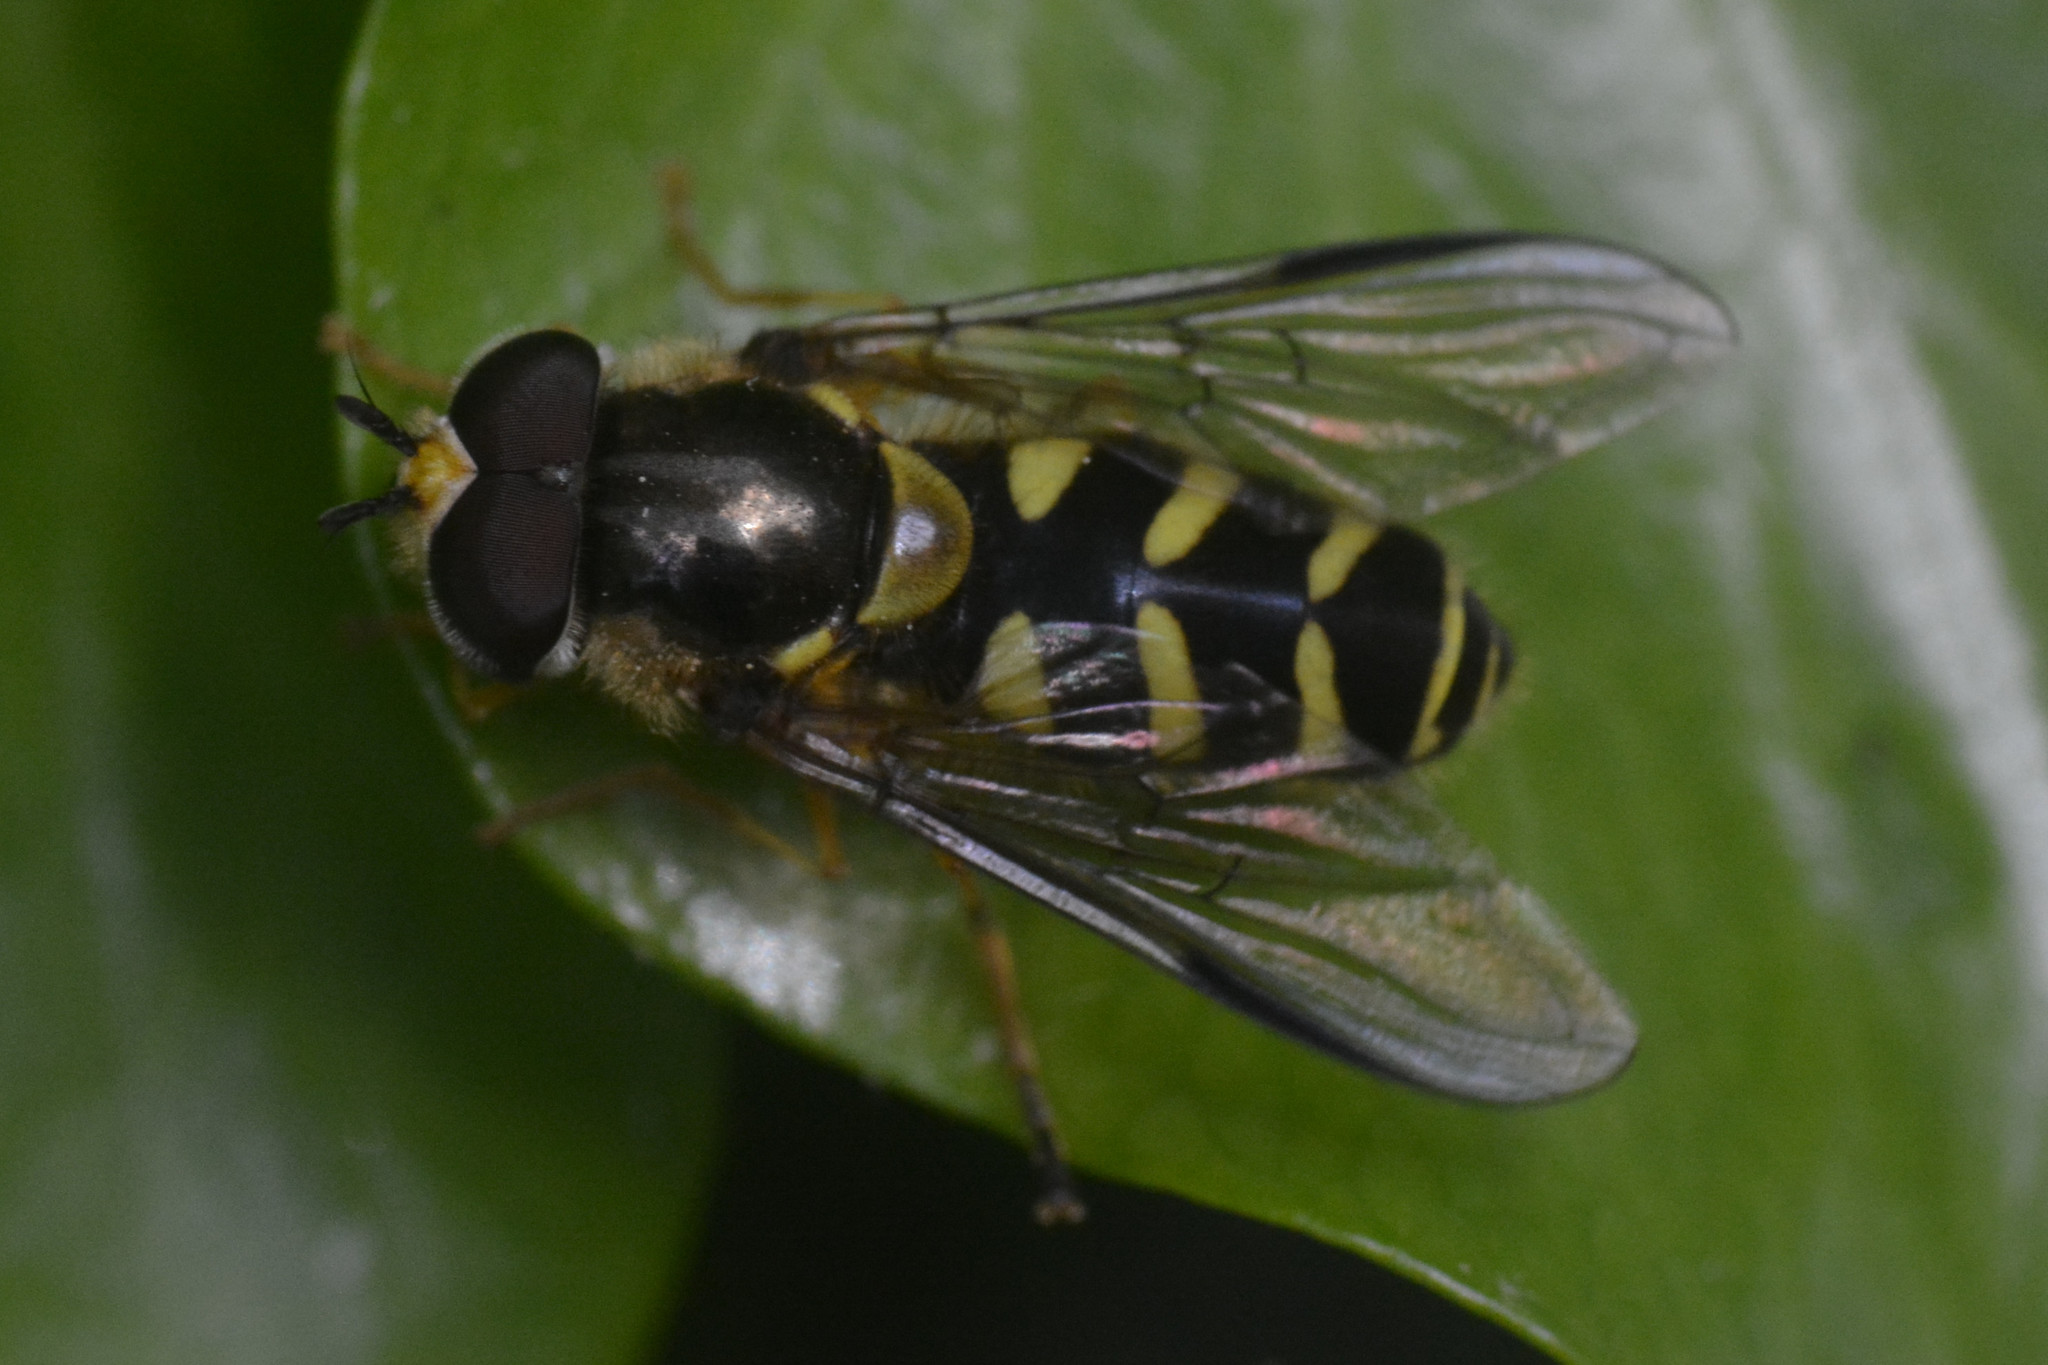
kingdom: Animalia
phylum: Arthropoda
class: Insecta
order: Diptera
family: Syrphidae
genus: Dasysyrphus
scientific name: Dasysyrphus albostriatus
